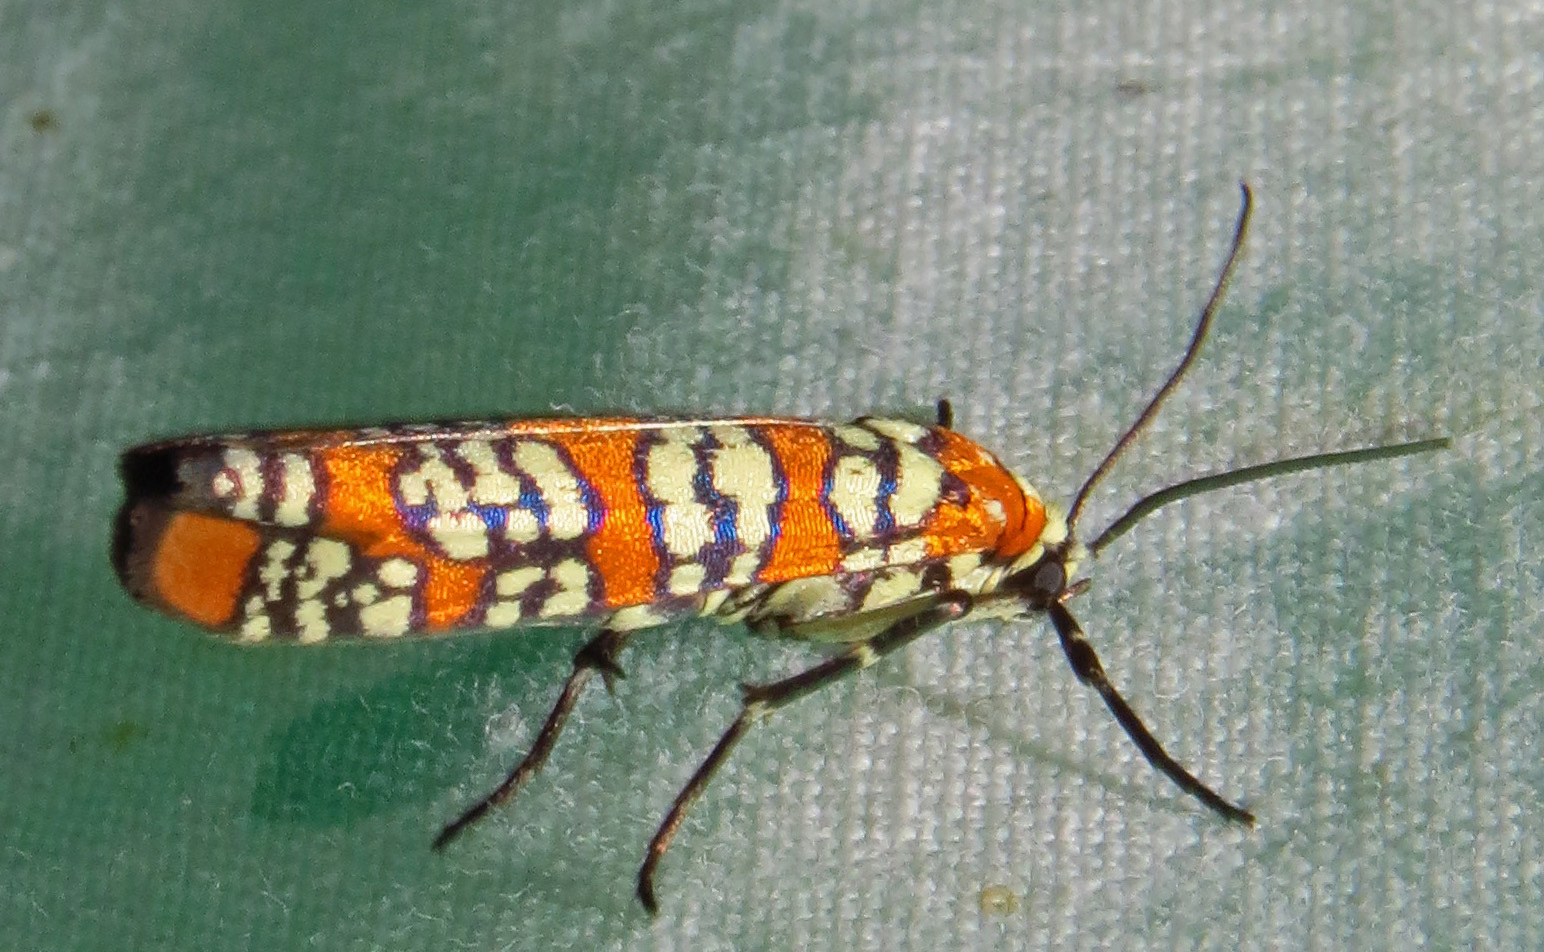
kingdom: Animalia
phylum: Arthropoda
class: Insecta
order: Lepidoptera
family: Attevidae
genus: Atteva
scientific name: Atteva punctella
